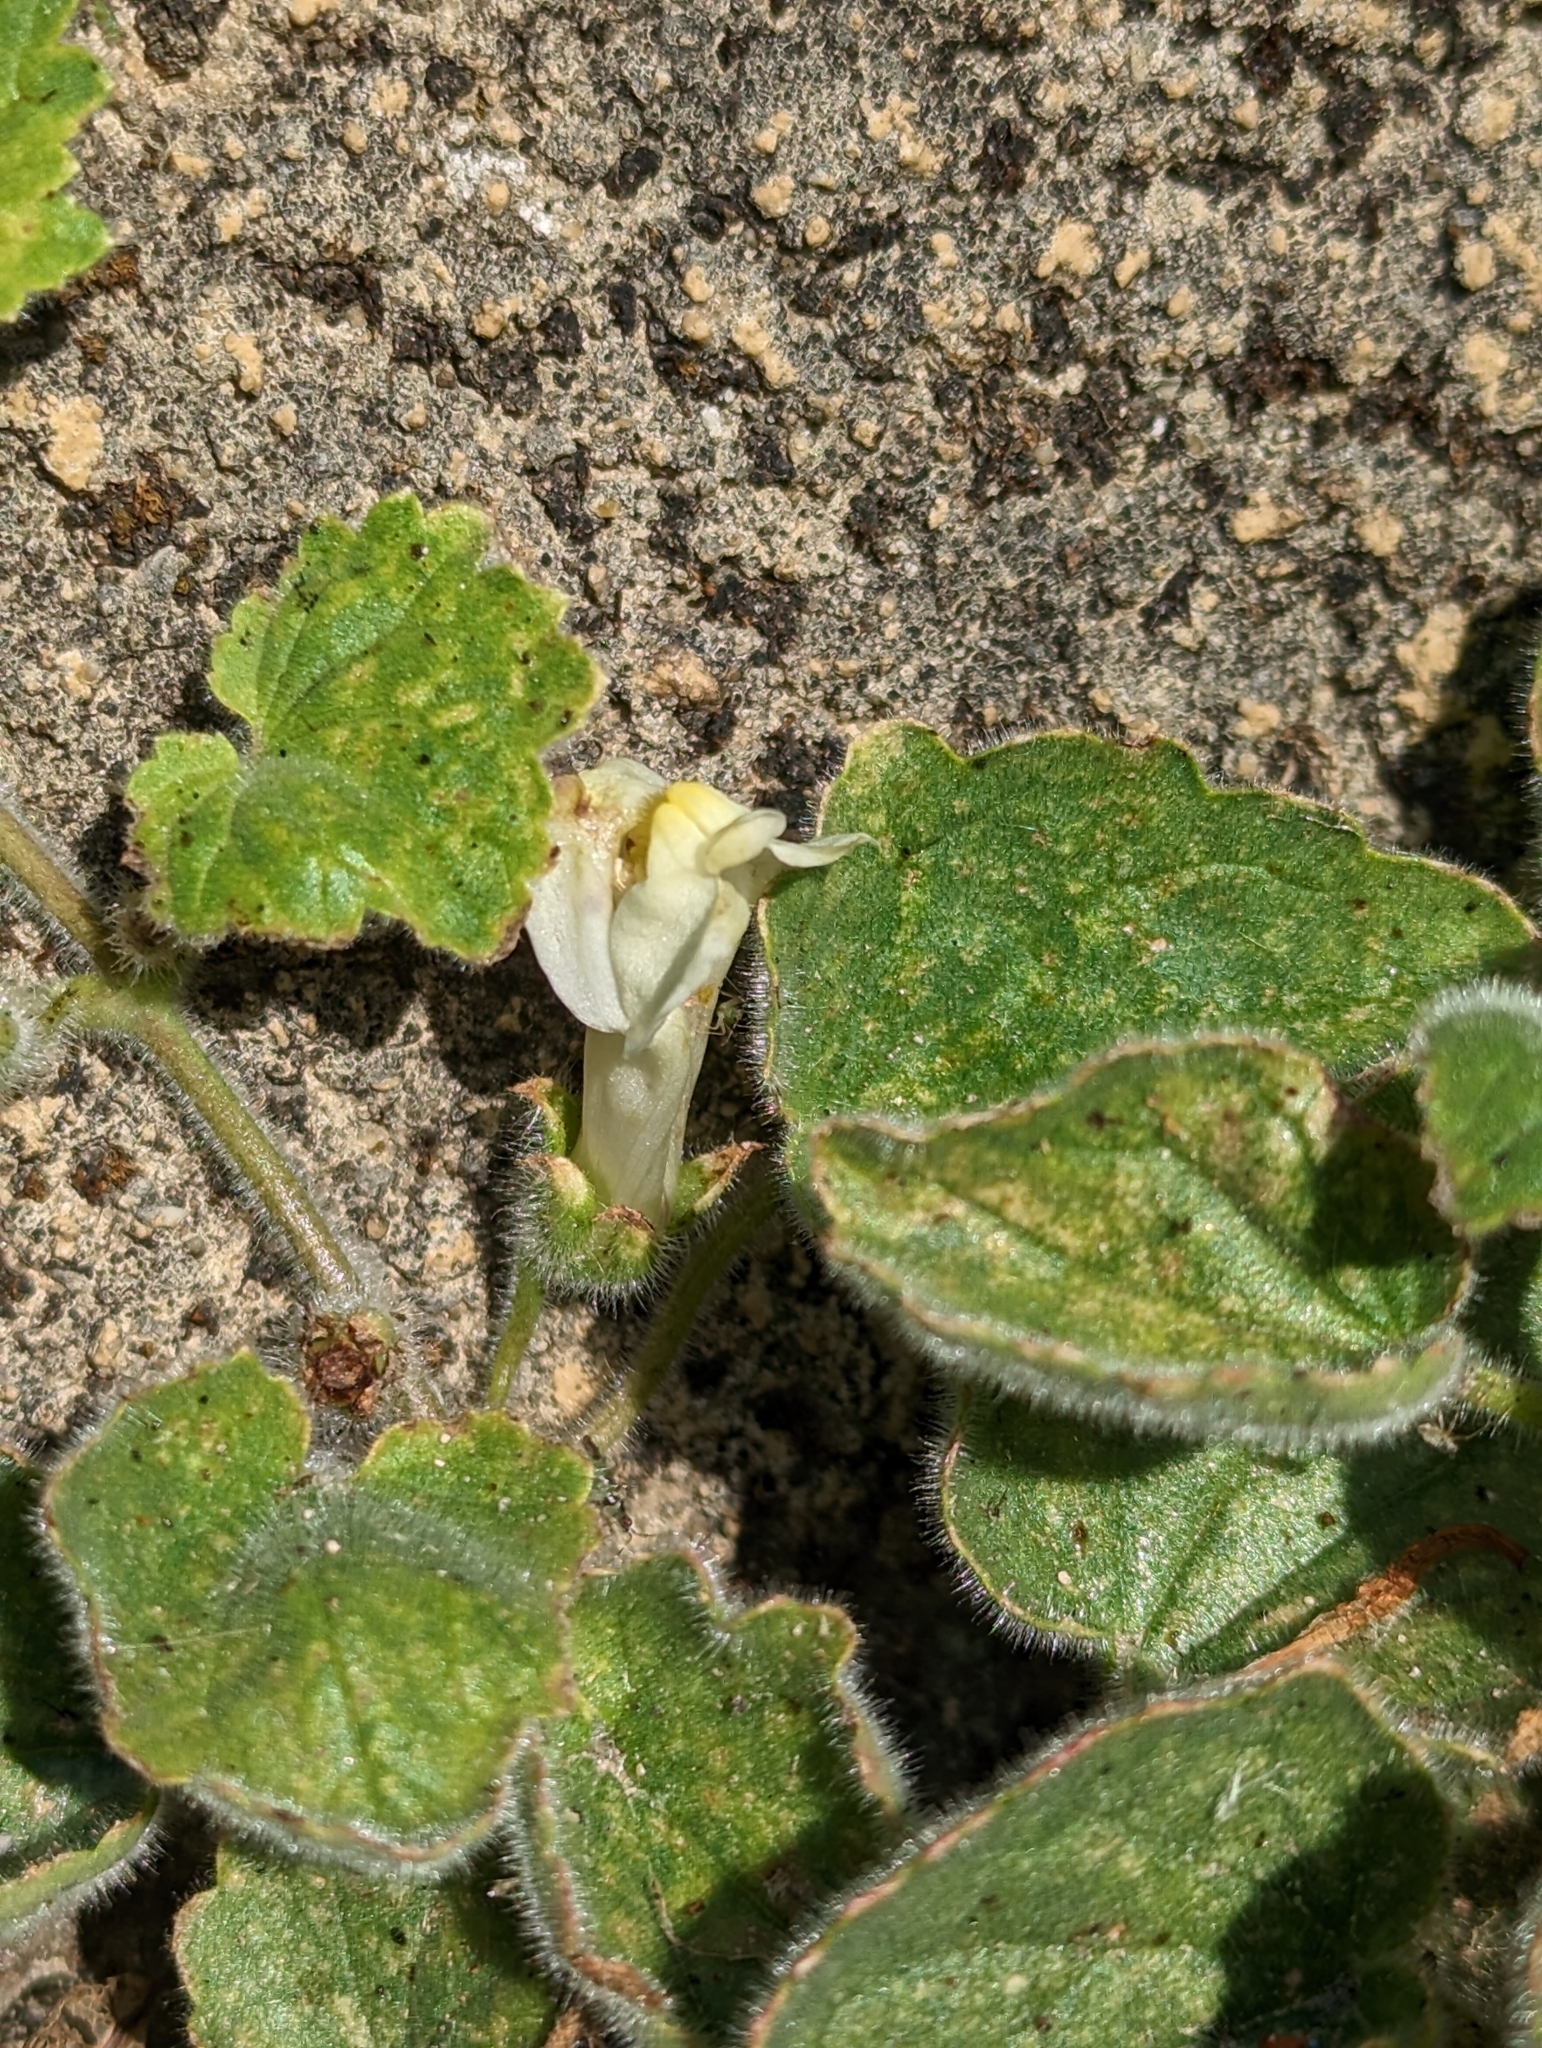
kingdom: Plantae
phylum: Tracheophyta
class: Magnoliopsida
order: Lamiales
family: Plantaginaceae
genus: Asarina
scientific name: Asarina procumbens
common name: Trailing snapdragon
